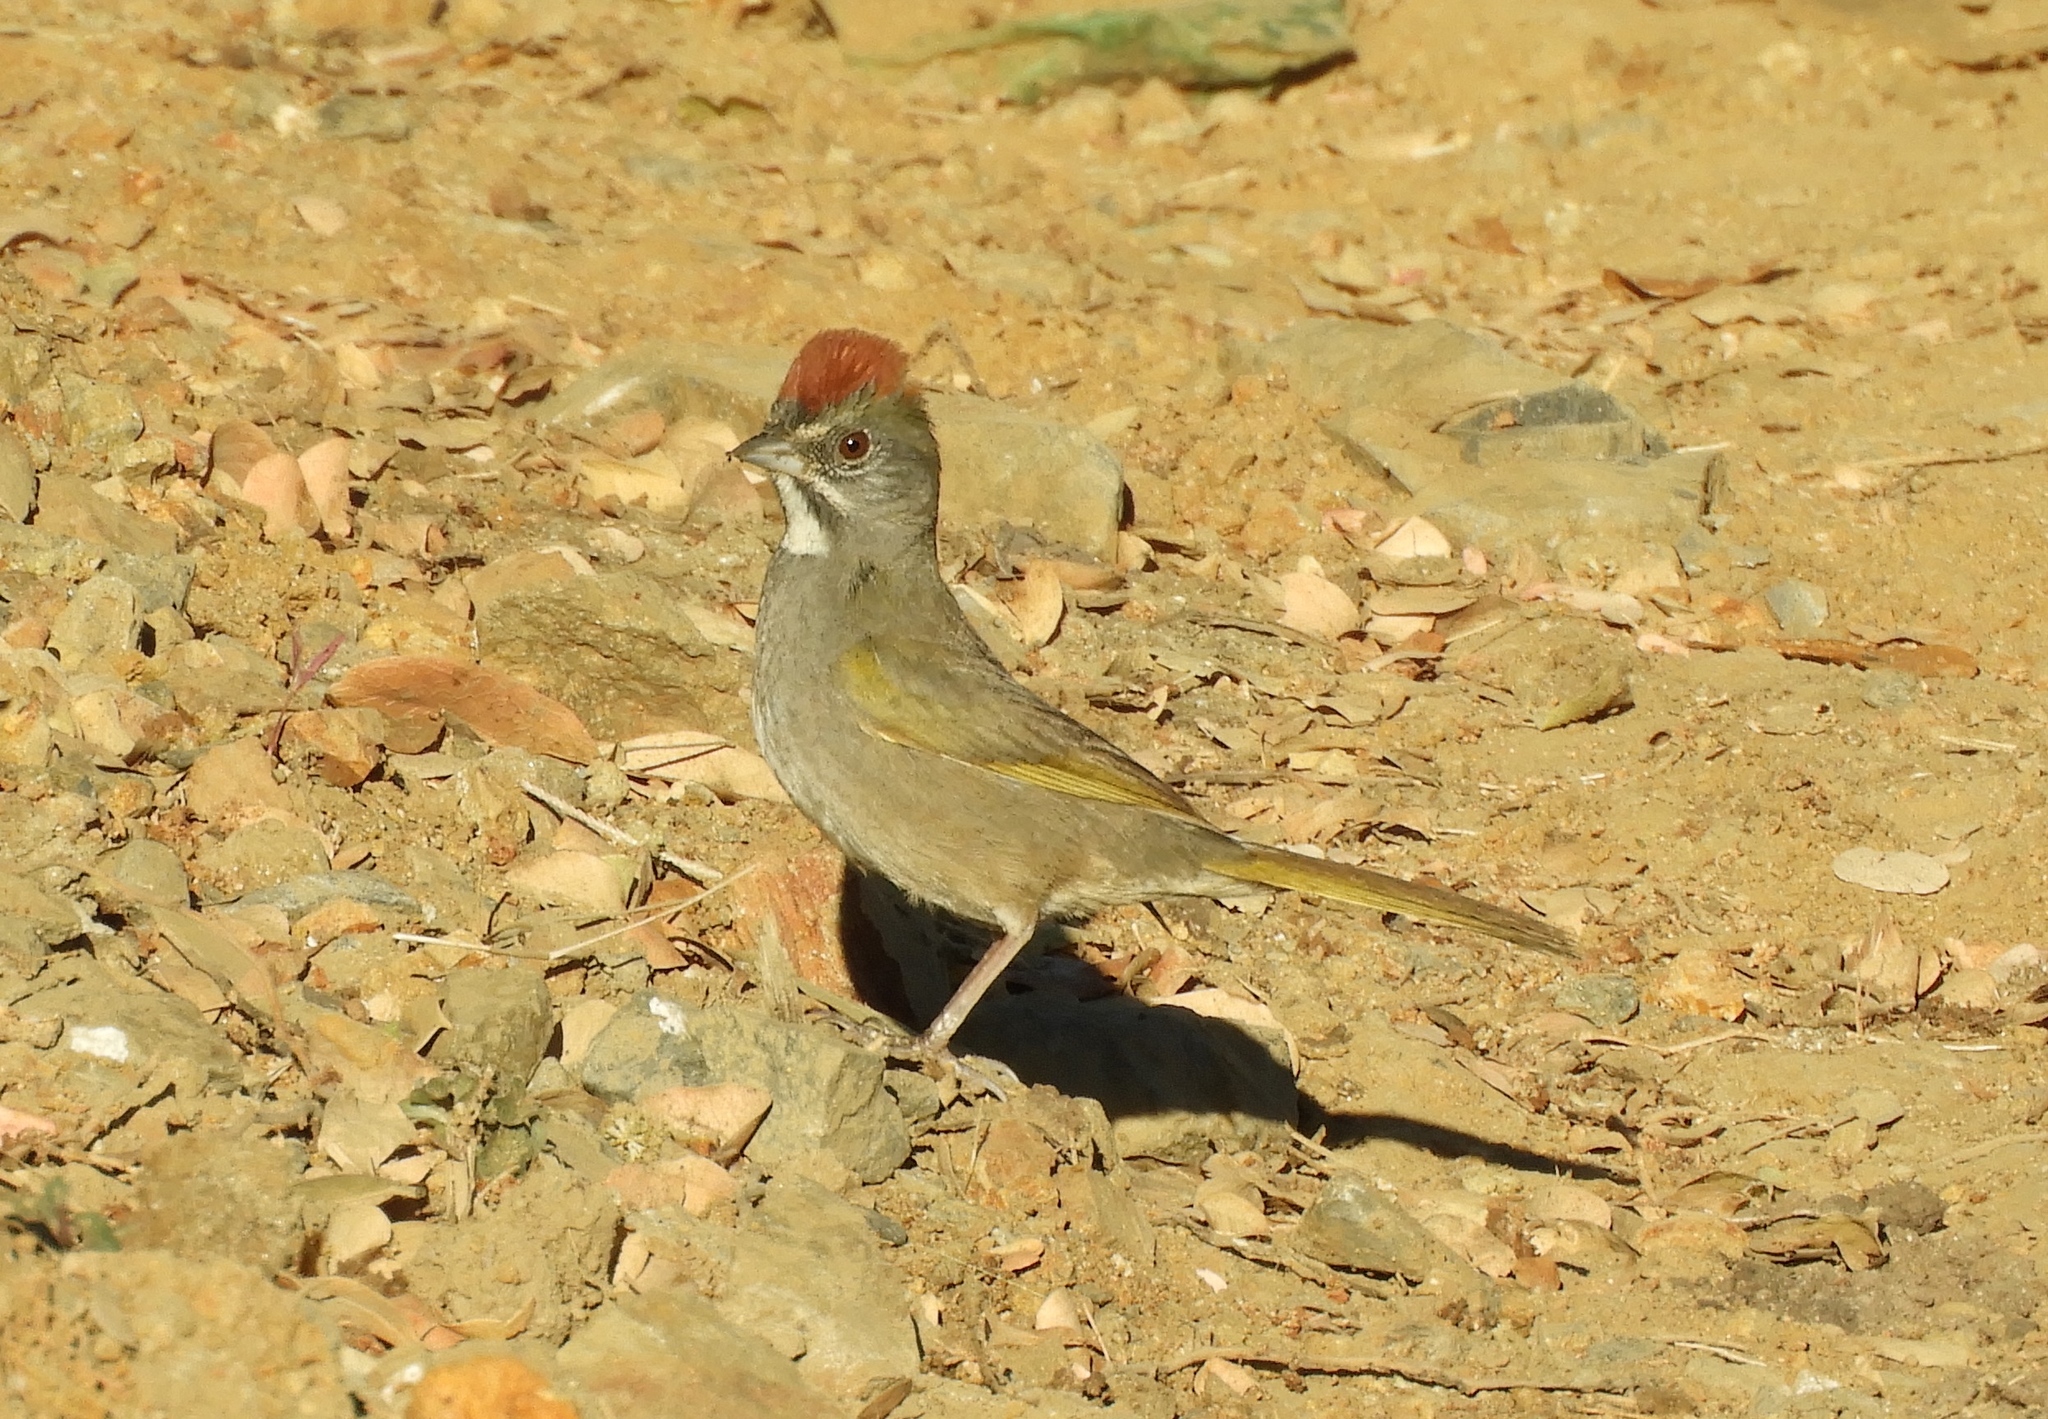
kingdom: Animalia
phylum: Chordata
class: Aves
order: Passeriformes
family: Passerellidae
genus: Pipilo
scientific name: Pipilo chlorurus
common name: Green-tailed towhee
